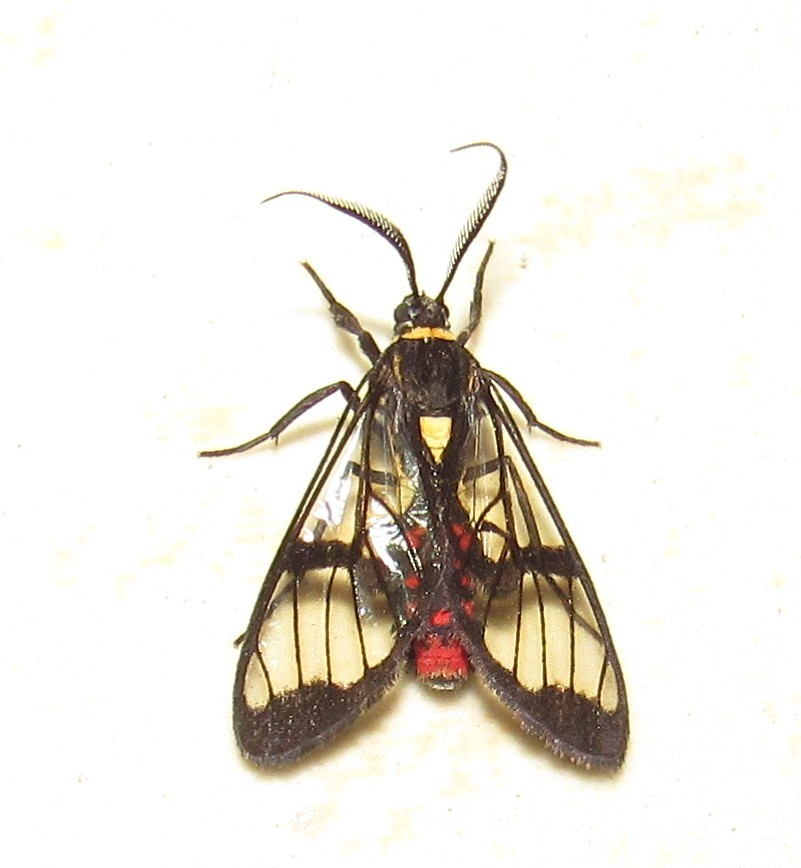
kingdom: Animalia
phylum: Arthropoda
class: Insecta
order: Lepidoptera
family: Erebidae
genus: Argyroeides
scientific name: Argyroeides sanguinea
